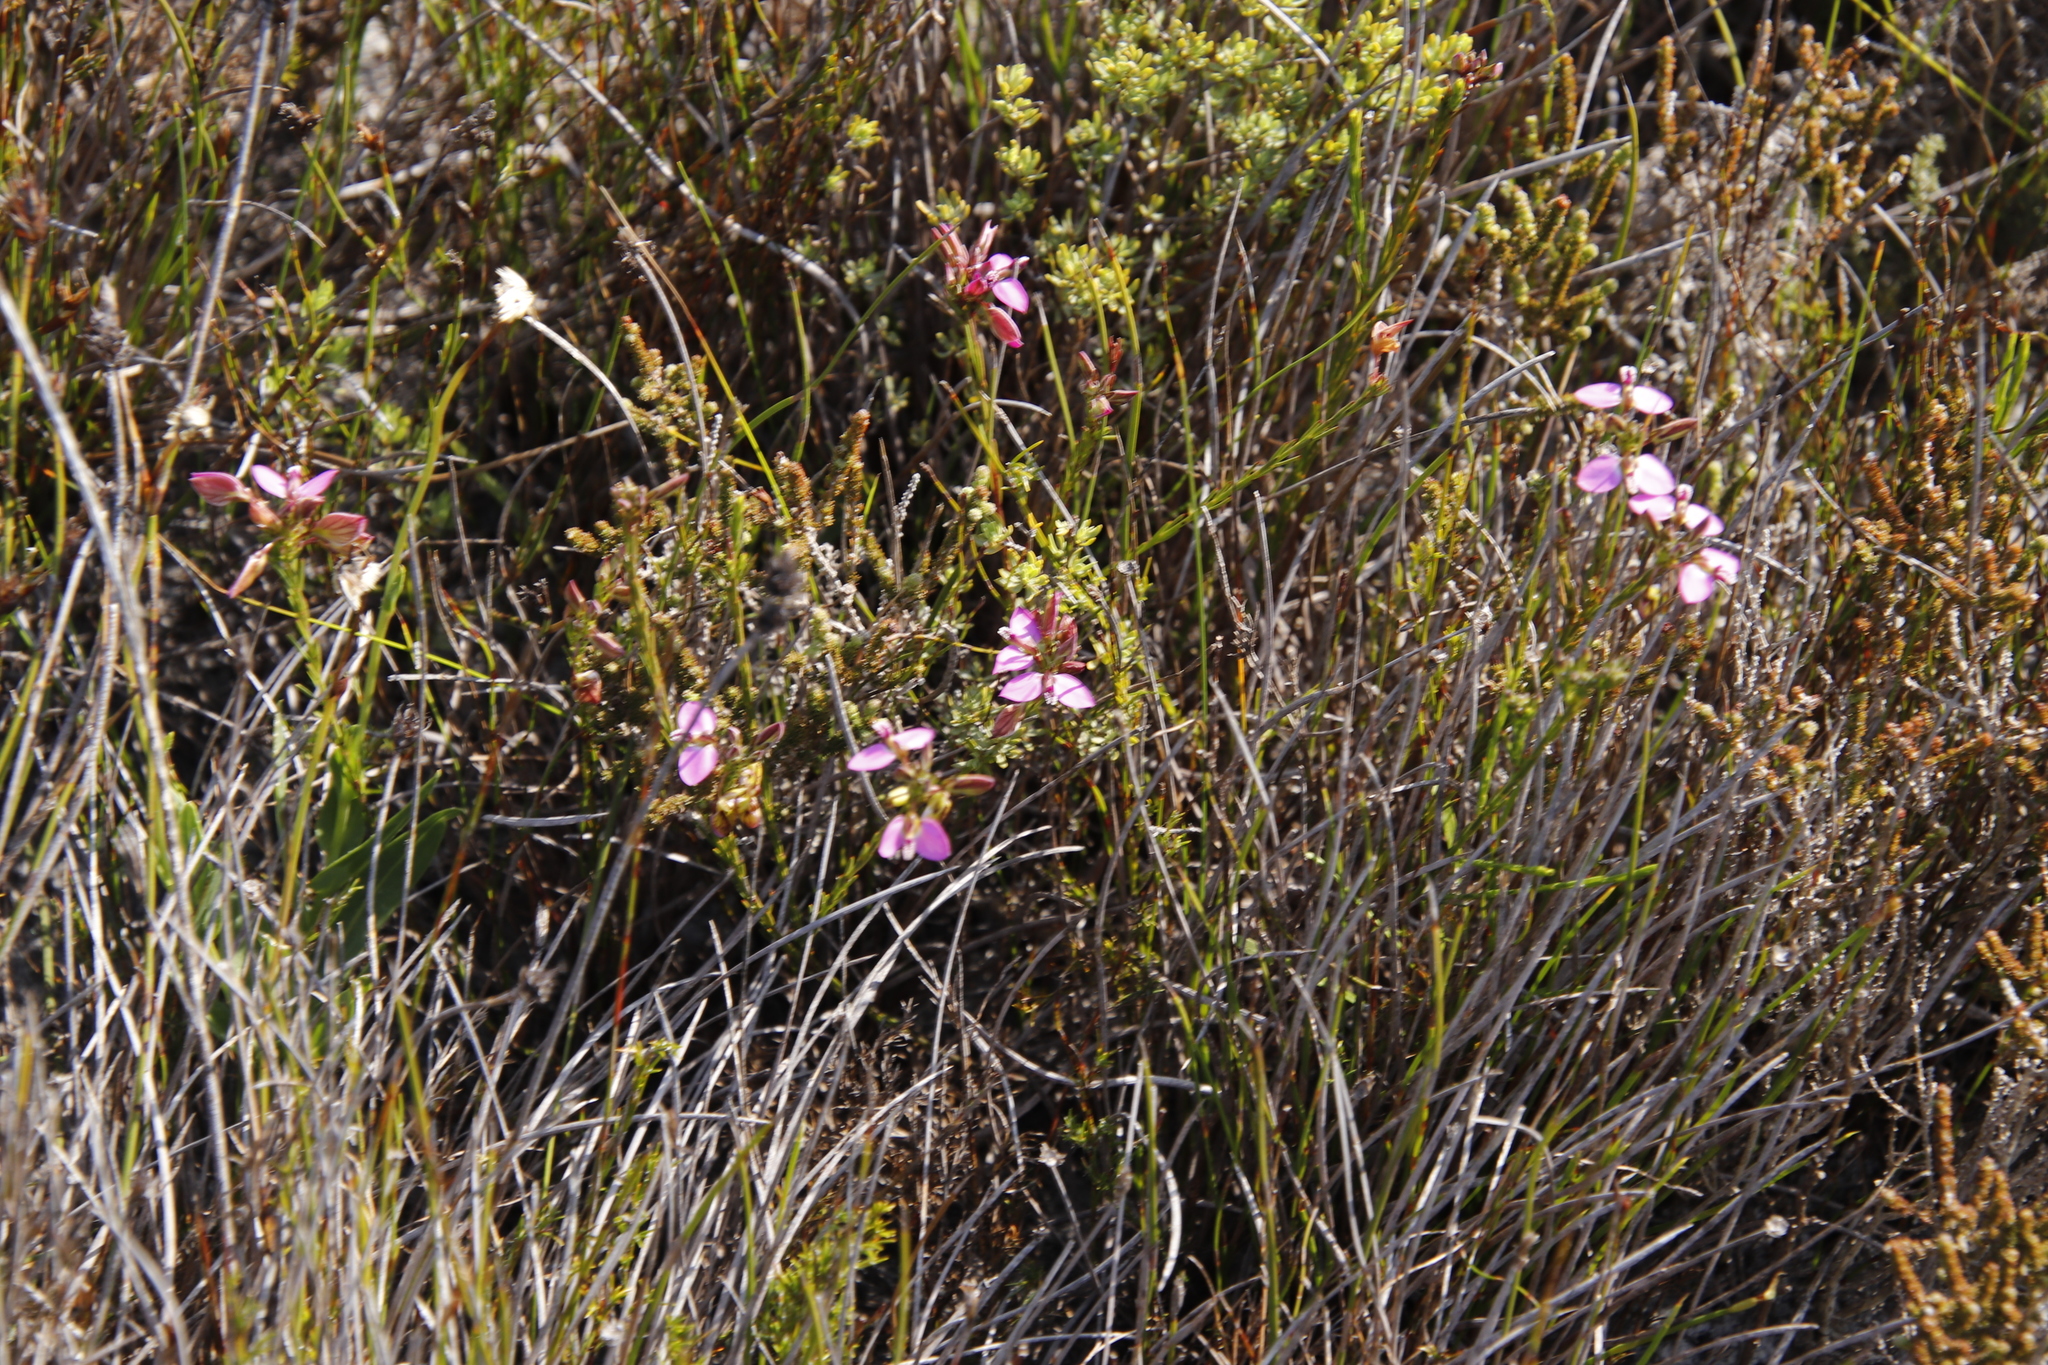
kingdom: Plantae
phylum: Tracheophyta
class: Magnoliopsida
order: Fabales
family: Polygalaceae
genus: Polygala
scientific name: Polygala recognita
